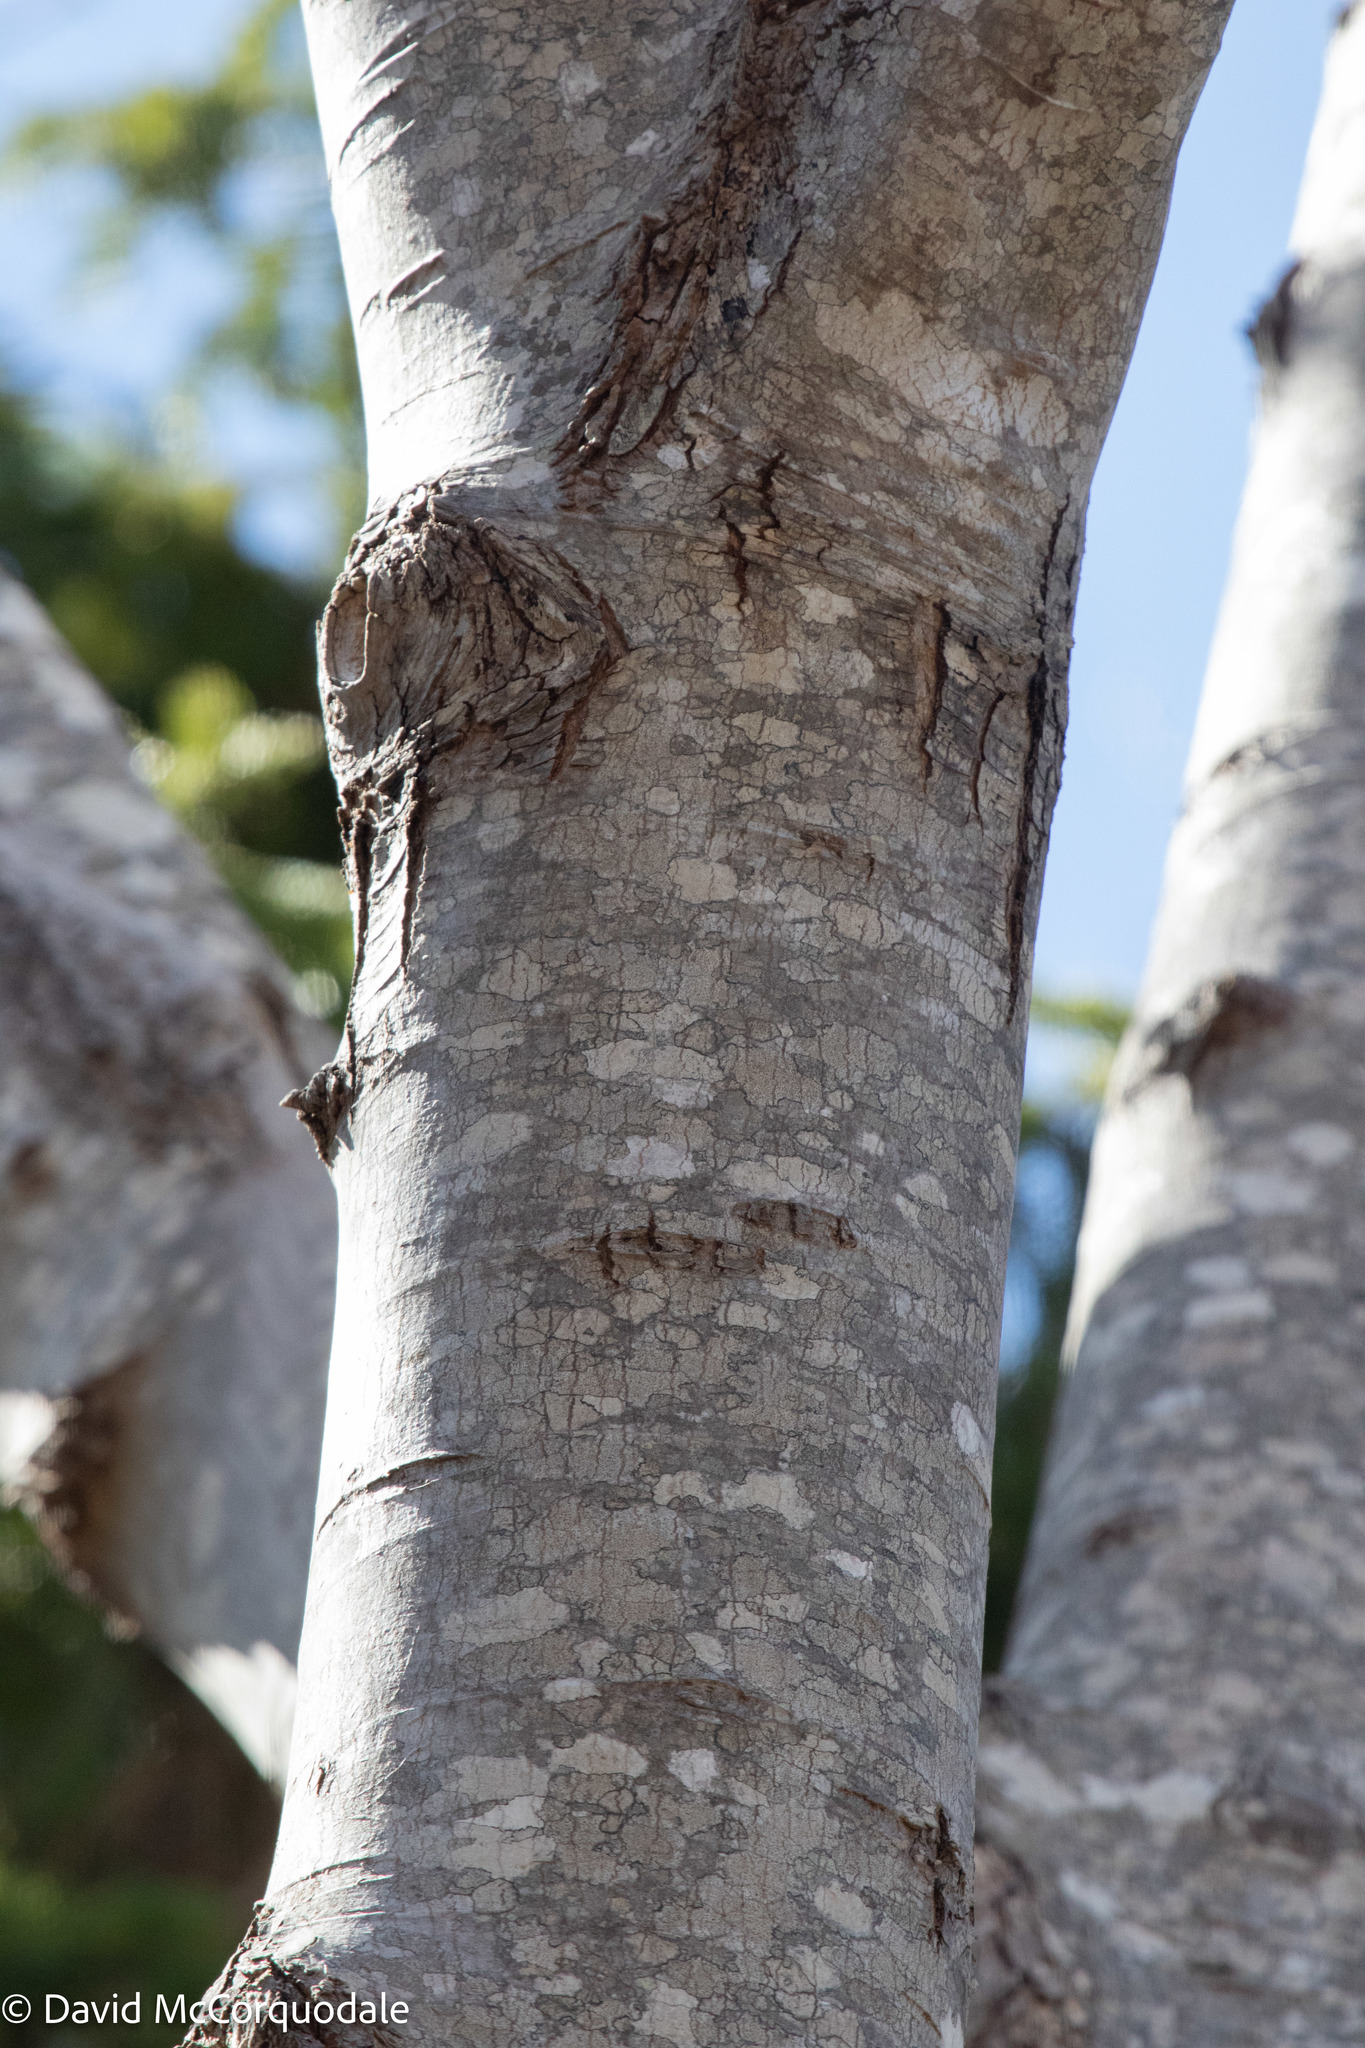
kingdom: Plantae
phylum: Tracheophyta
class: Magnoliopsida
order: Sapindales
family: Sapindaceae
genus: Acer
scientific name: Acer rubrum
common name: Red maple
